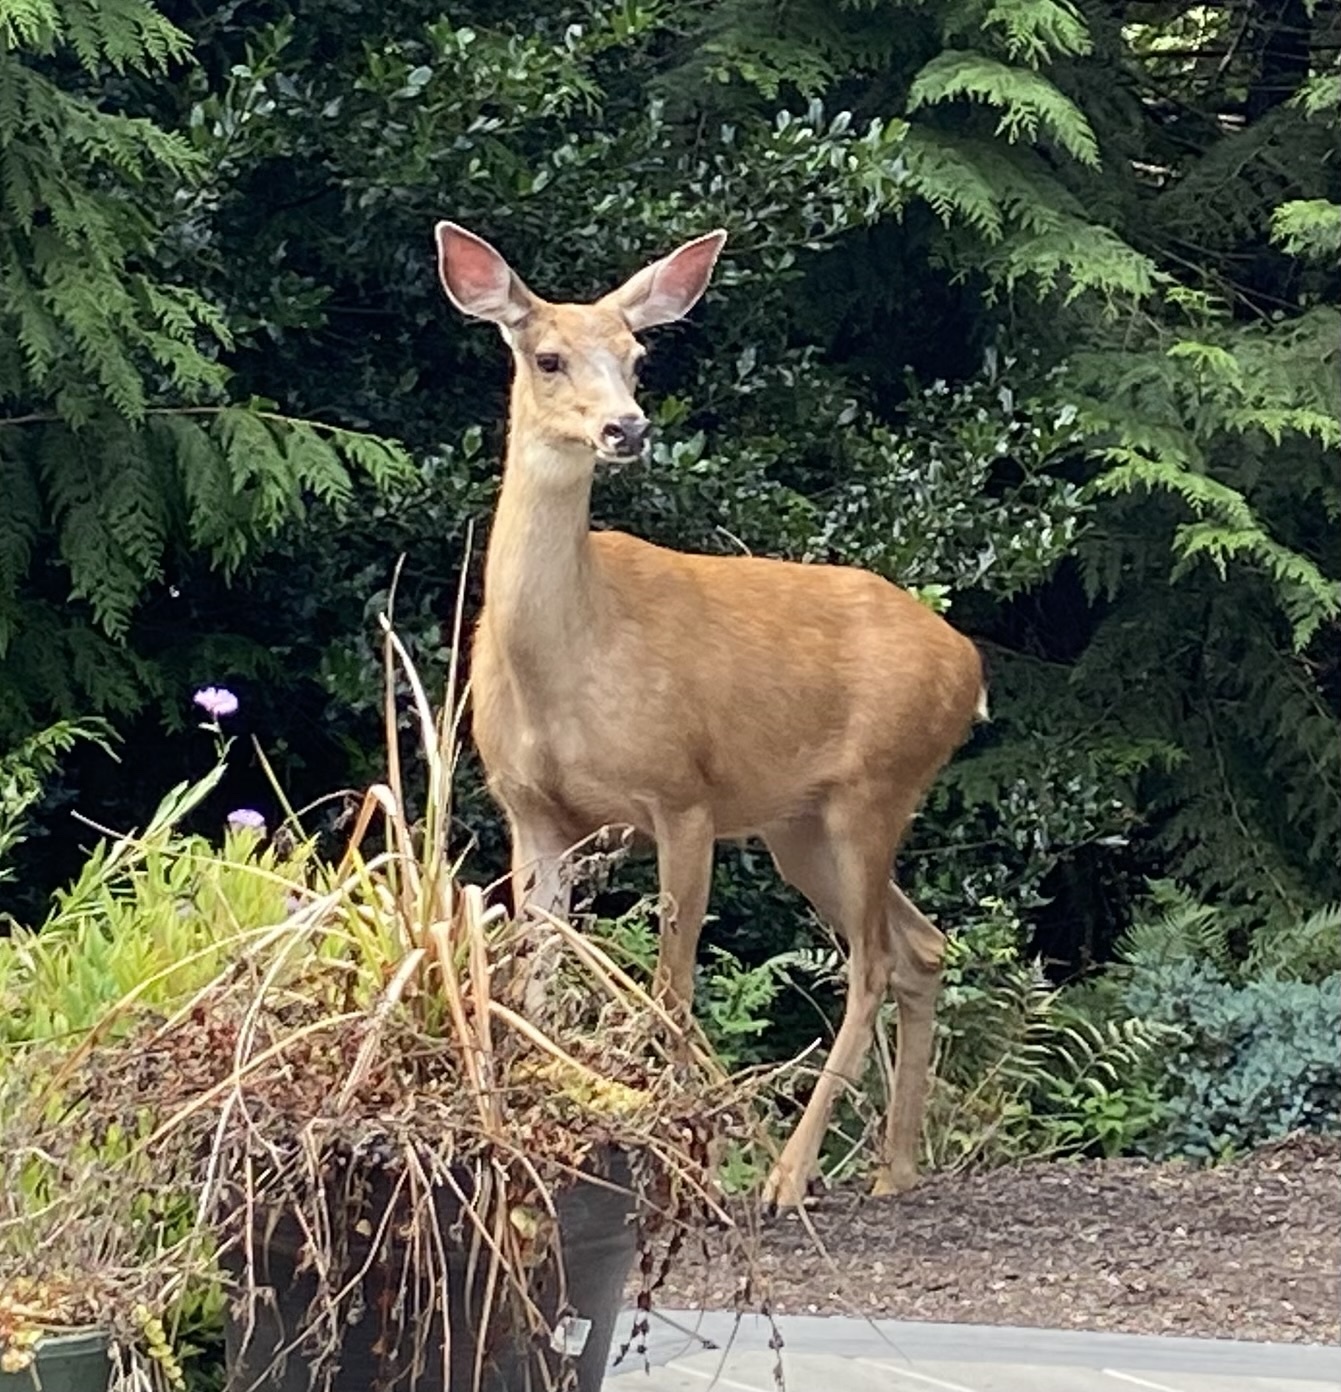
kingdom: Animalia
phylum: Chordata
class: Mammalia
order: Artiodactyla
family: Cervidae
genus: Odocoileus
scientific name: Odocoileus hemionus
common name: Mule deer
